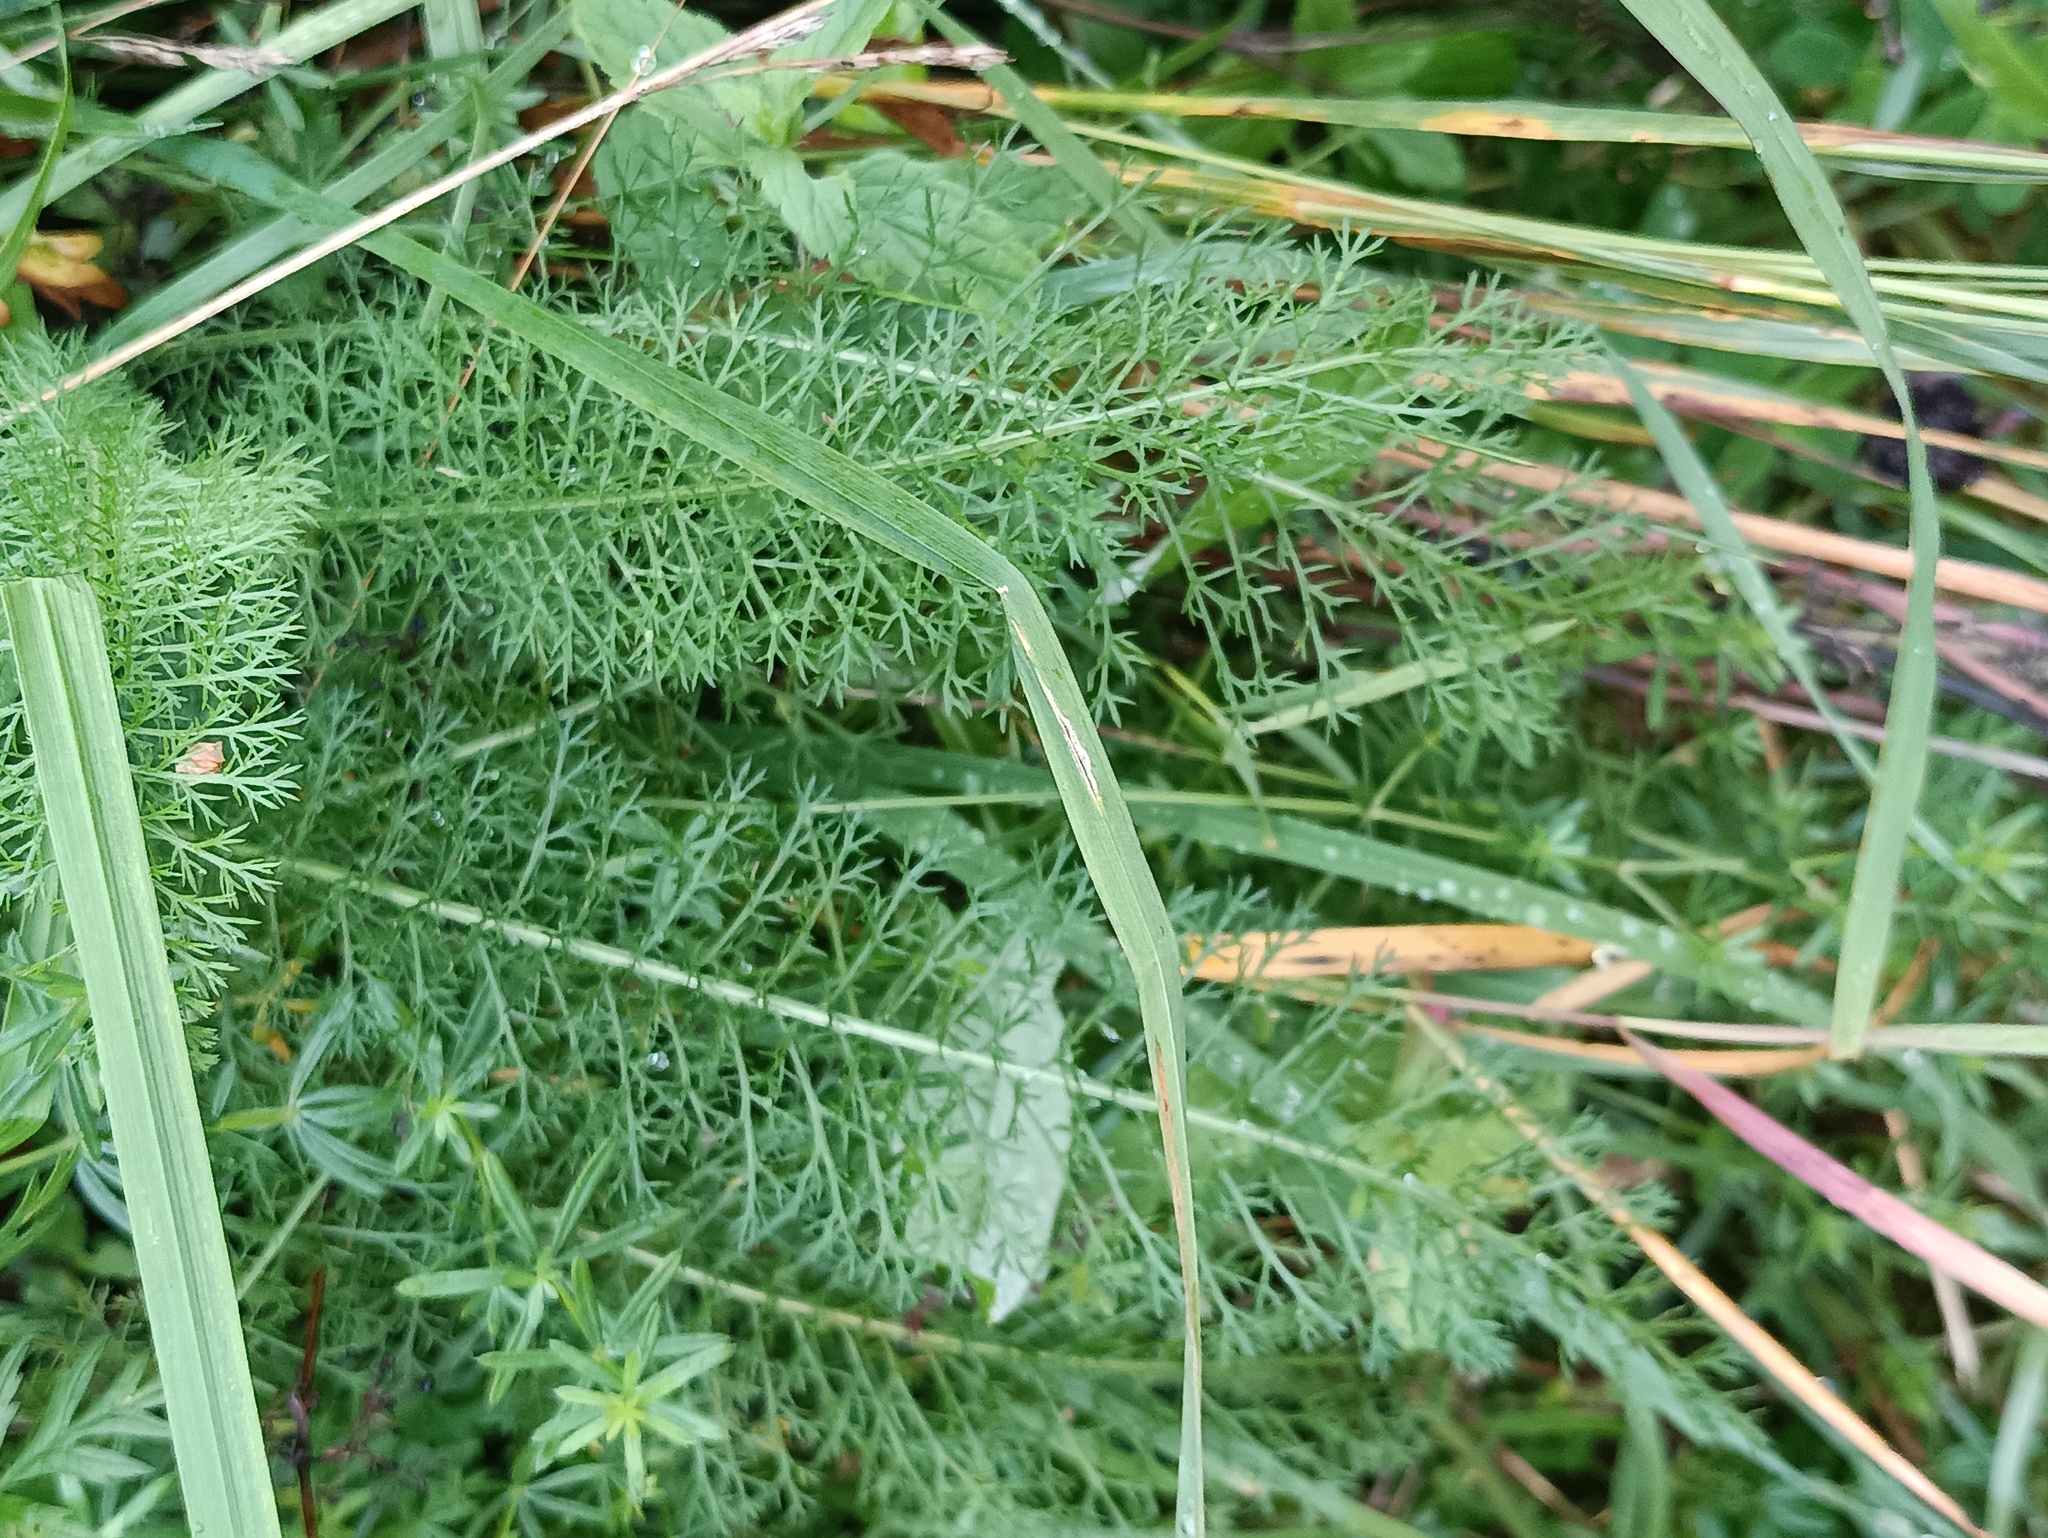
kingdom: Plantae
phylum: Tracheophyta
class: Magnoliopsida
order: Asterales
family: Asteraceae
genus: Achillea
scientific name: Achillea millefolium
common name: Yarrow
